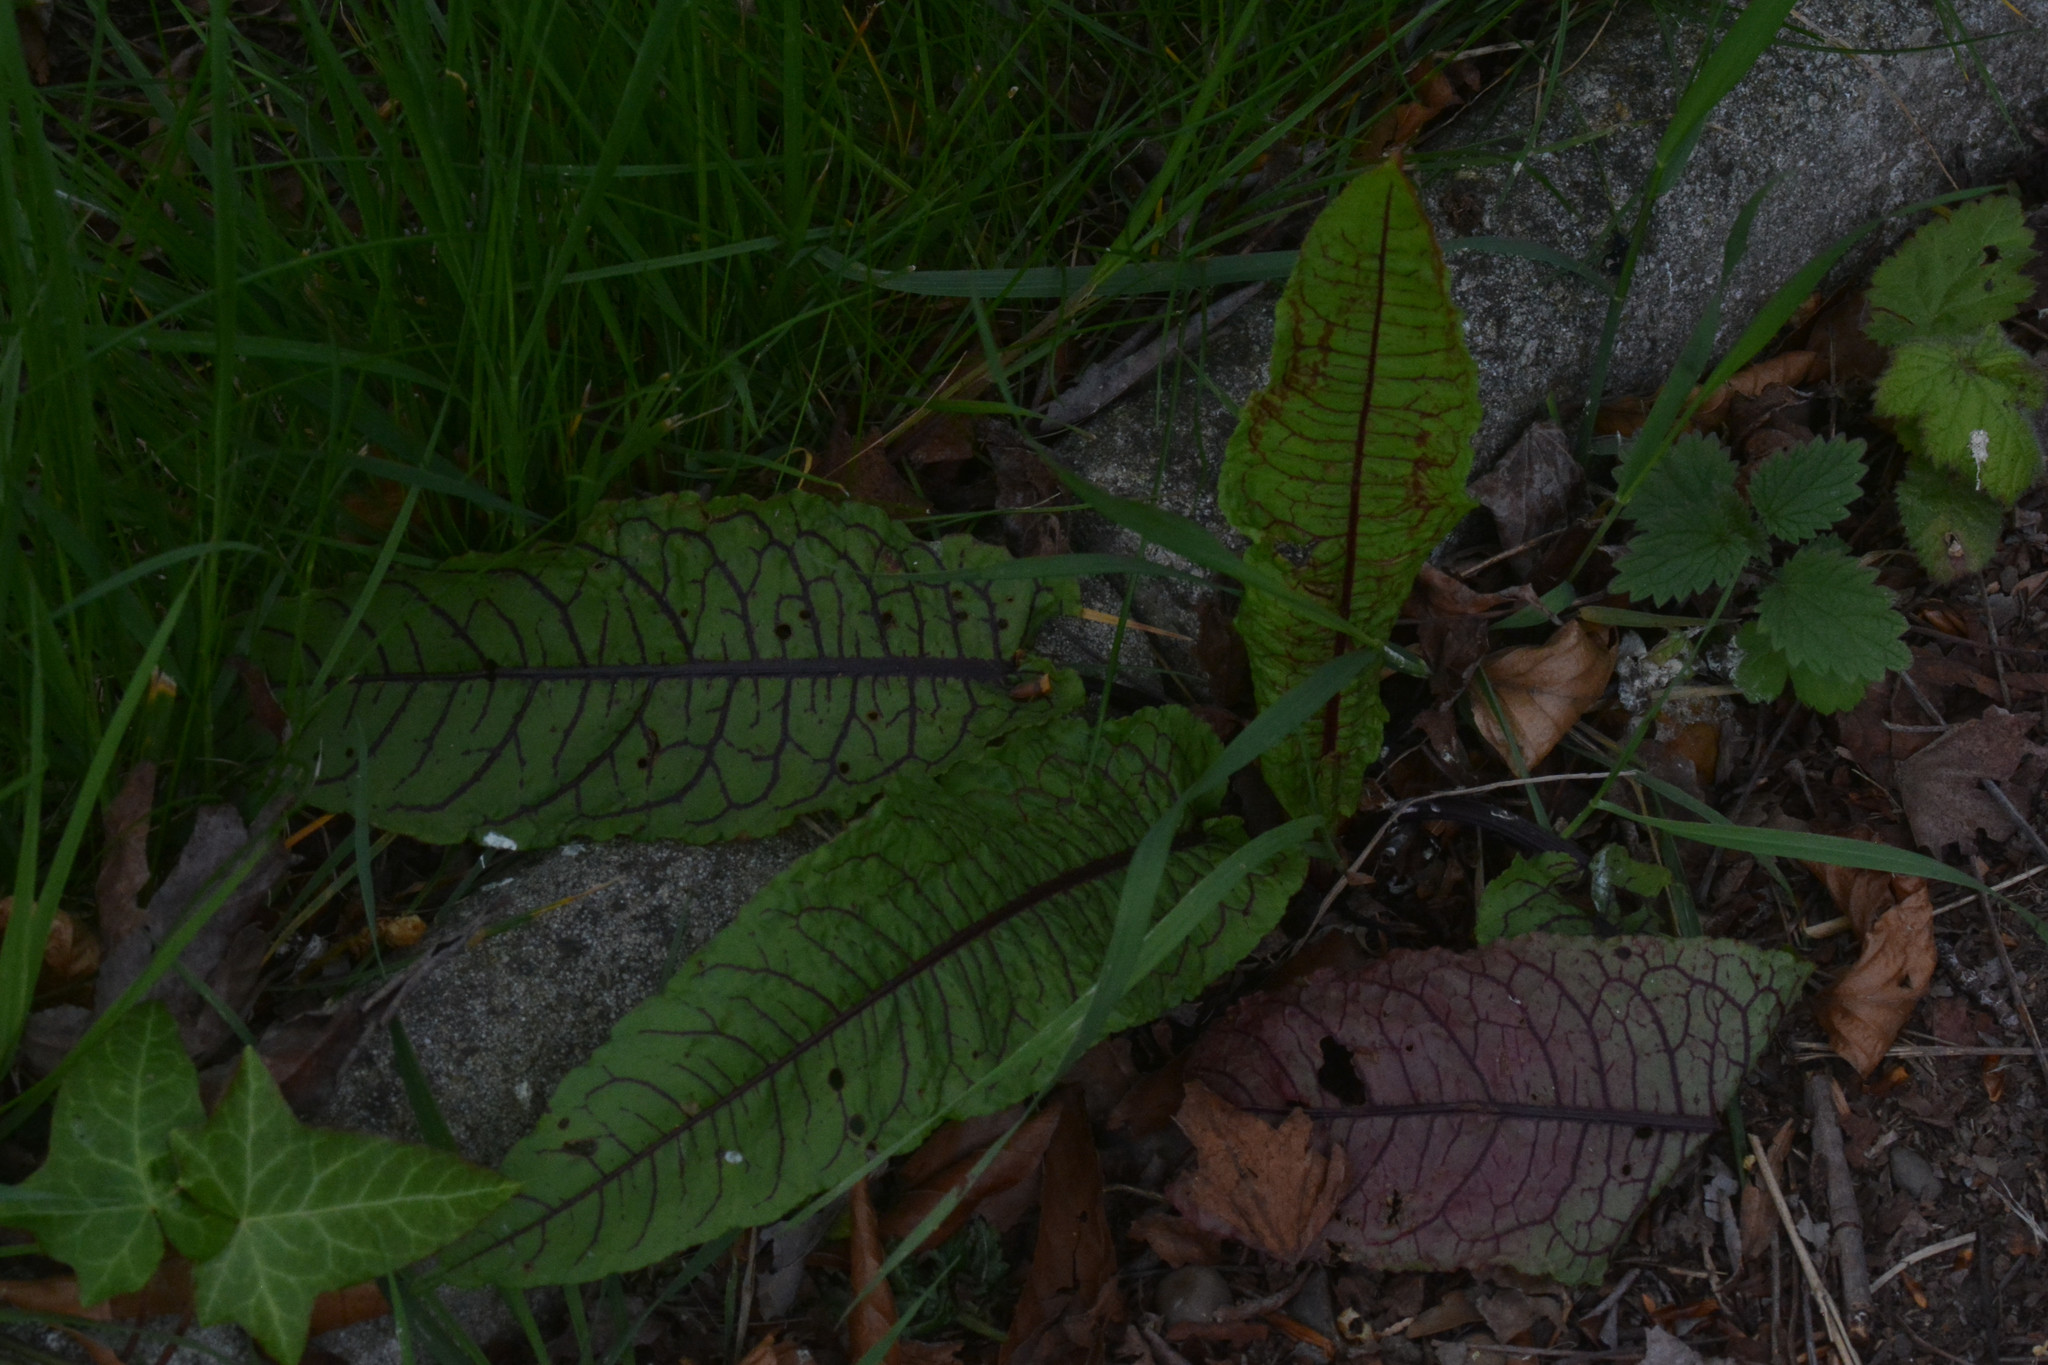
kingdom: Plantae
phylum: Tracheophyta
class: Magnoliopsida
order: Caryophyllales
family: Polygonaceae
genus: Rumex
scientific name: Rumex sanguineus
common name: Wood dock
